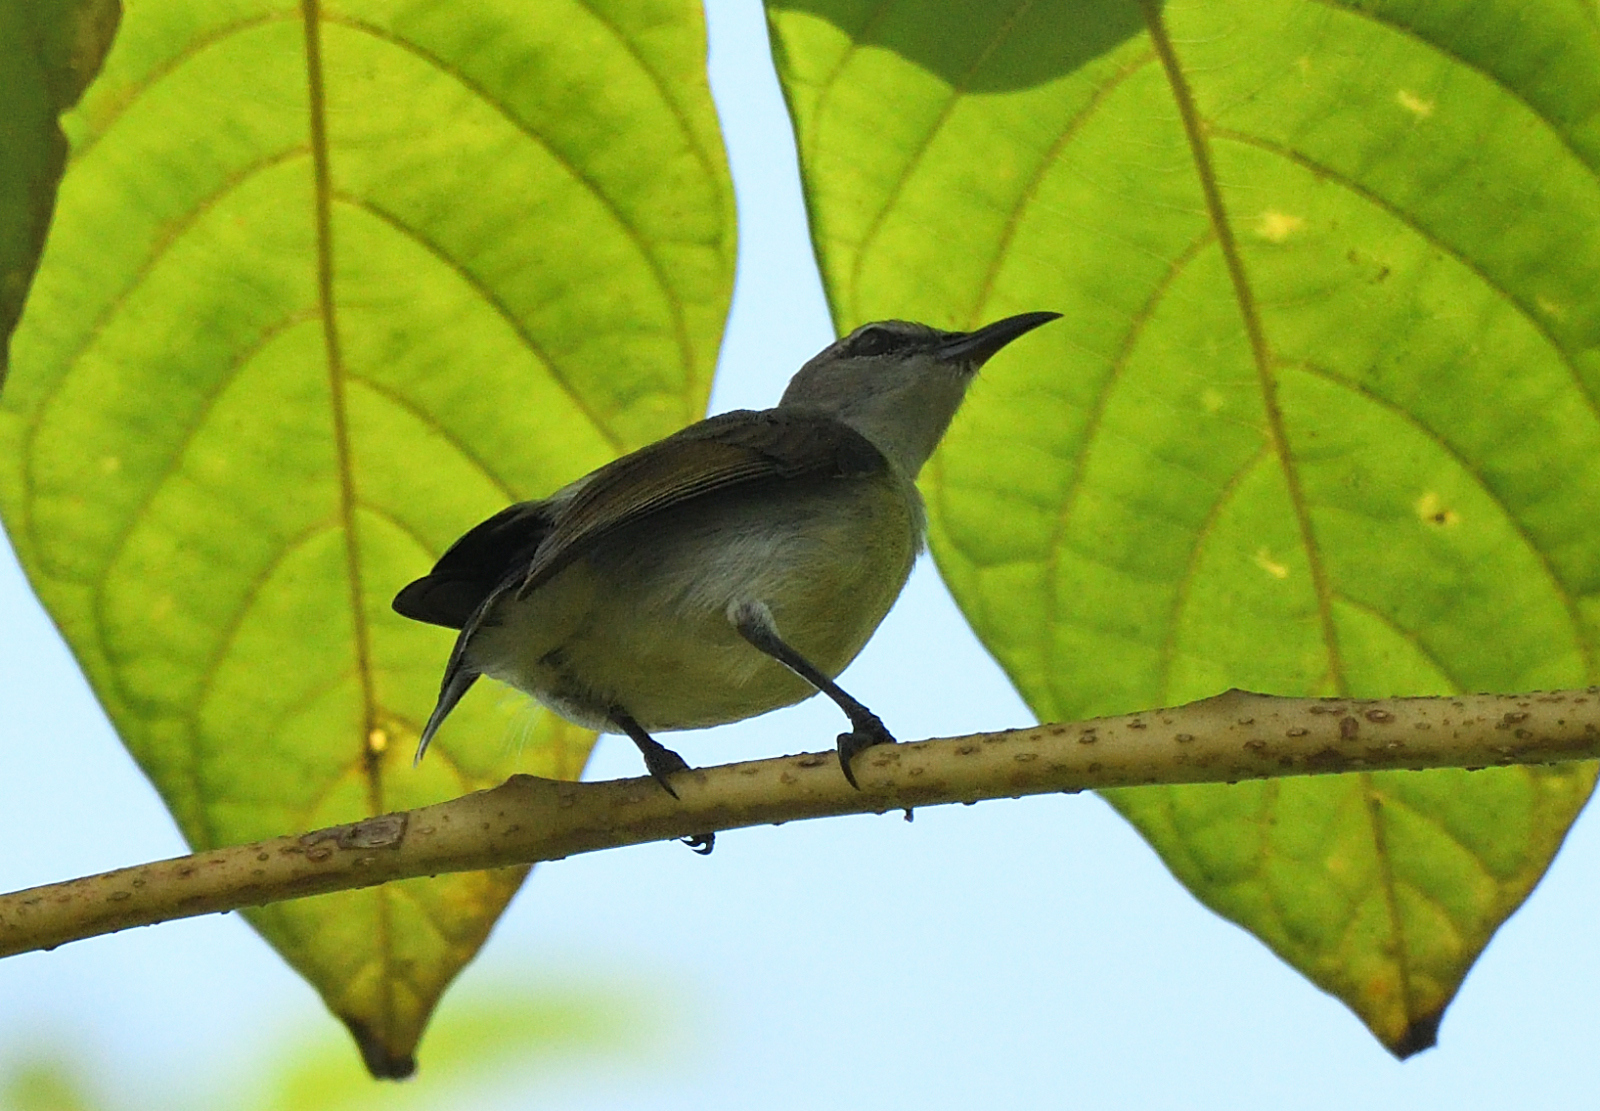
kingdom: Animalia
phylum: Chordata
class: Aves
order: Passeriformes
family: Nectariniidae
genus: Leptocoma
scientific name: Leptocoma zeylonica
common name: Purple-rumped sunbird
